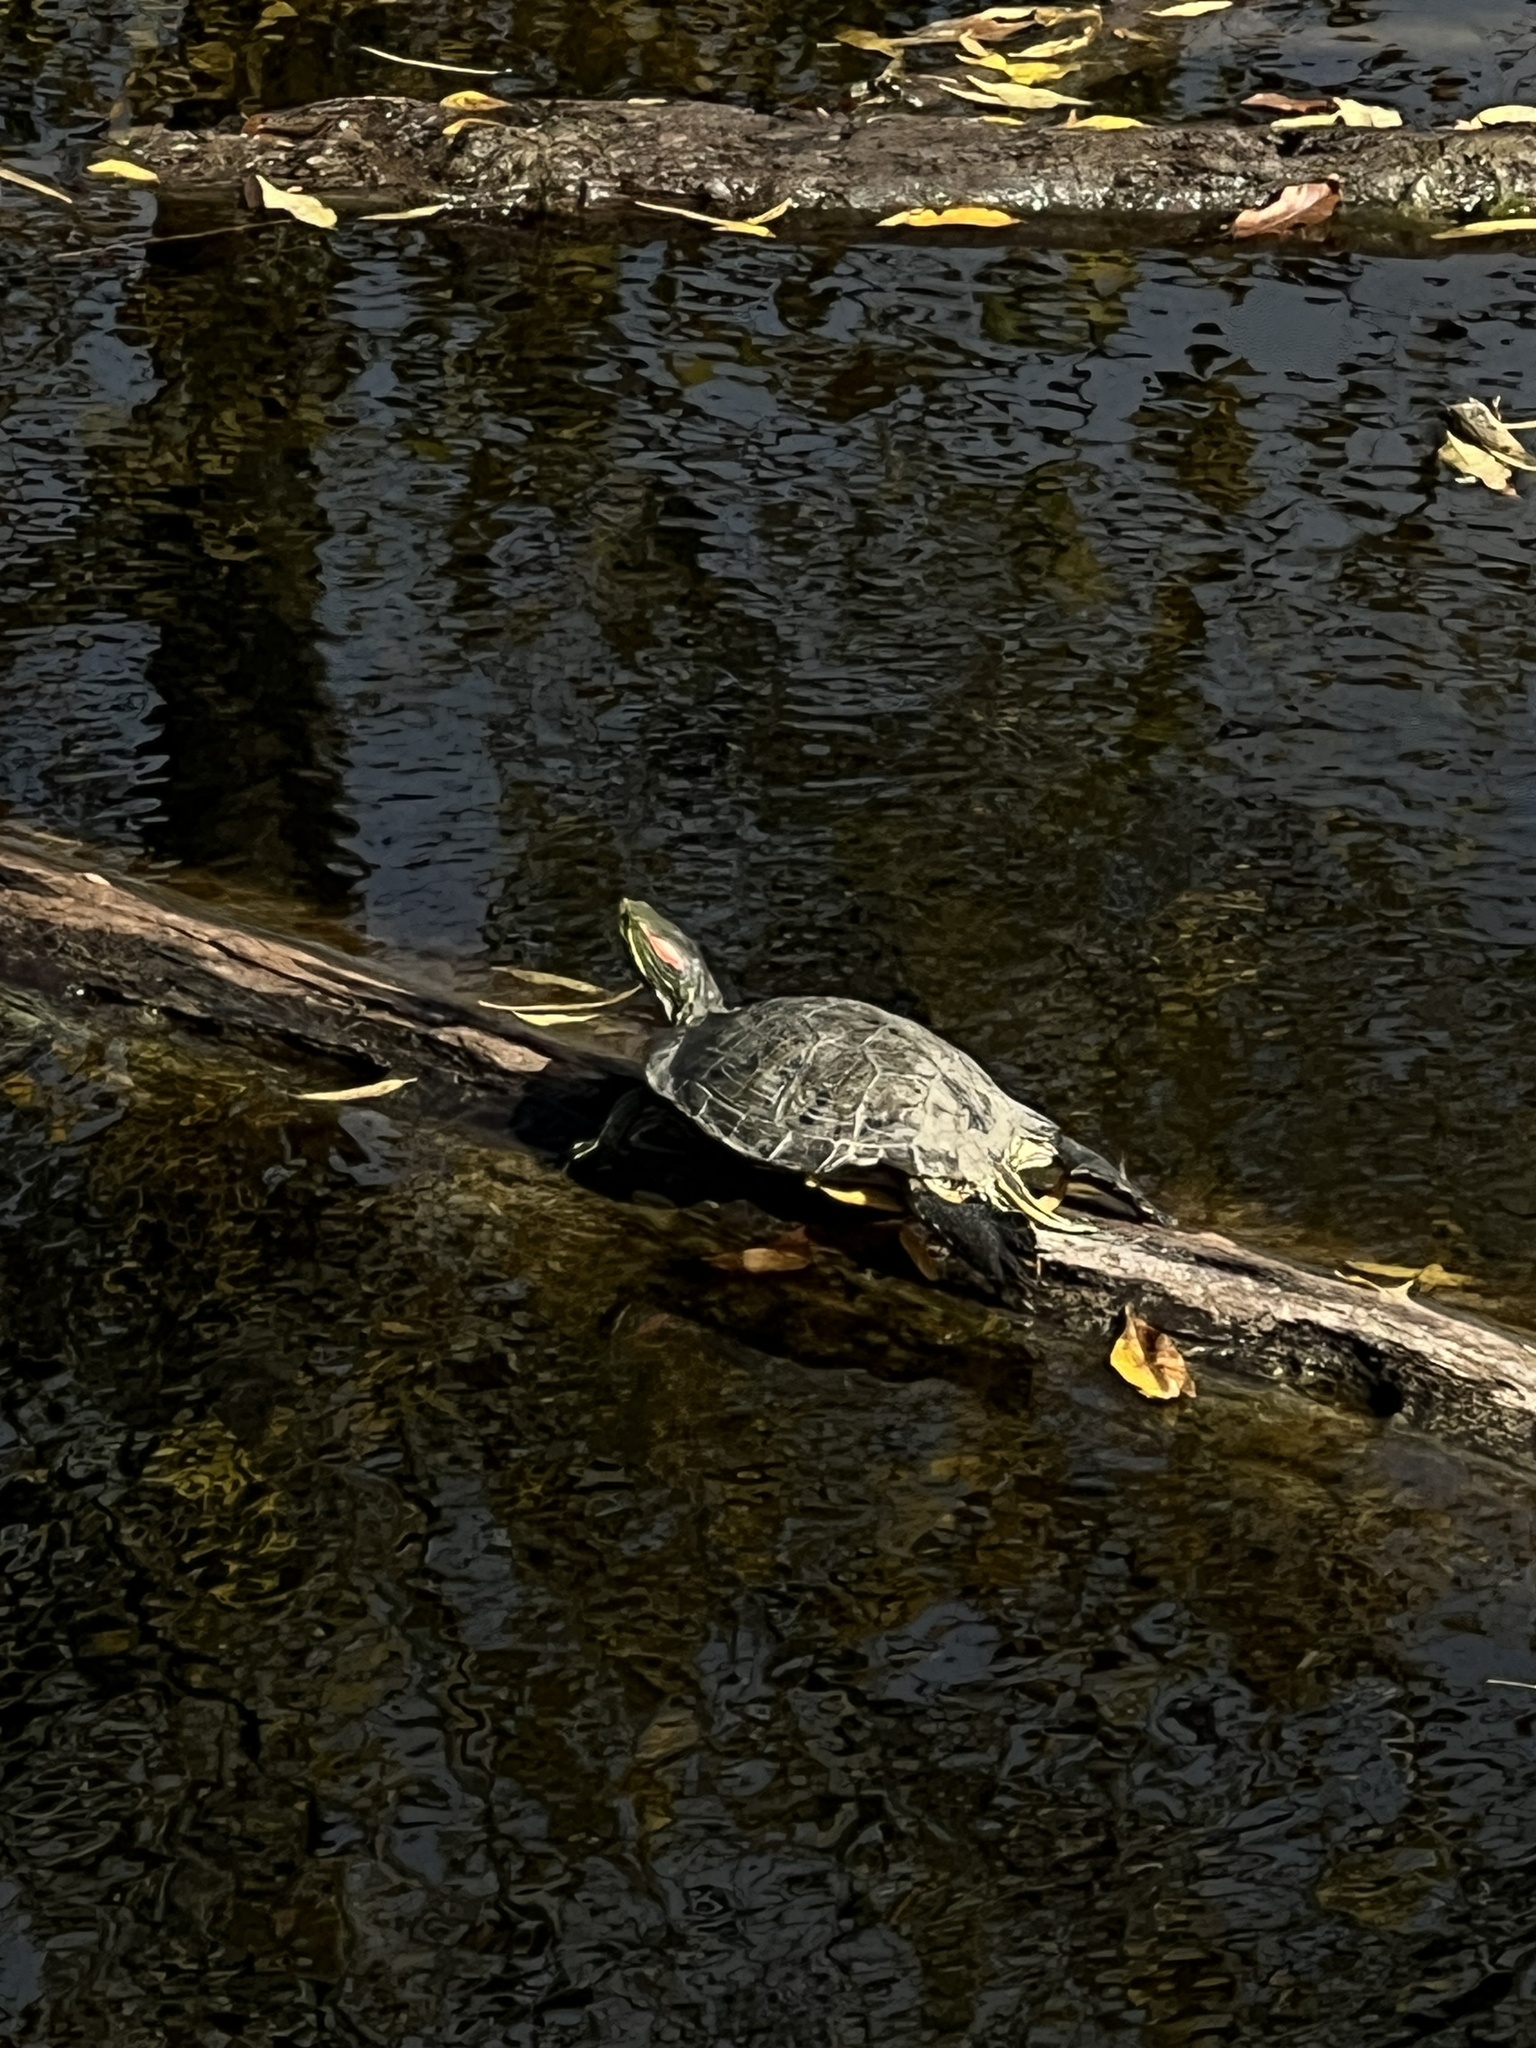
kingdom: Animalia
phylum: Chordata
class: Testudines
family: Emydidae
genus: Trachemys
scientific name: Trachemys scripta
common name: Slider
